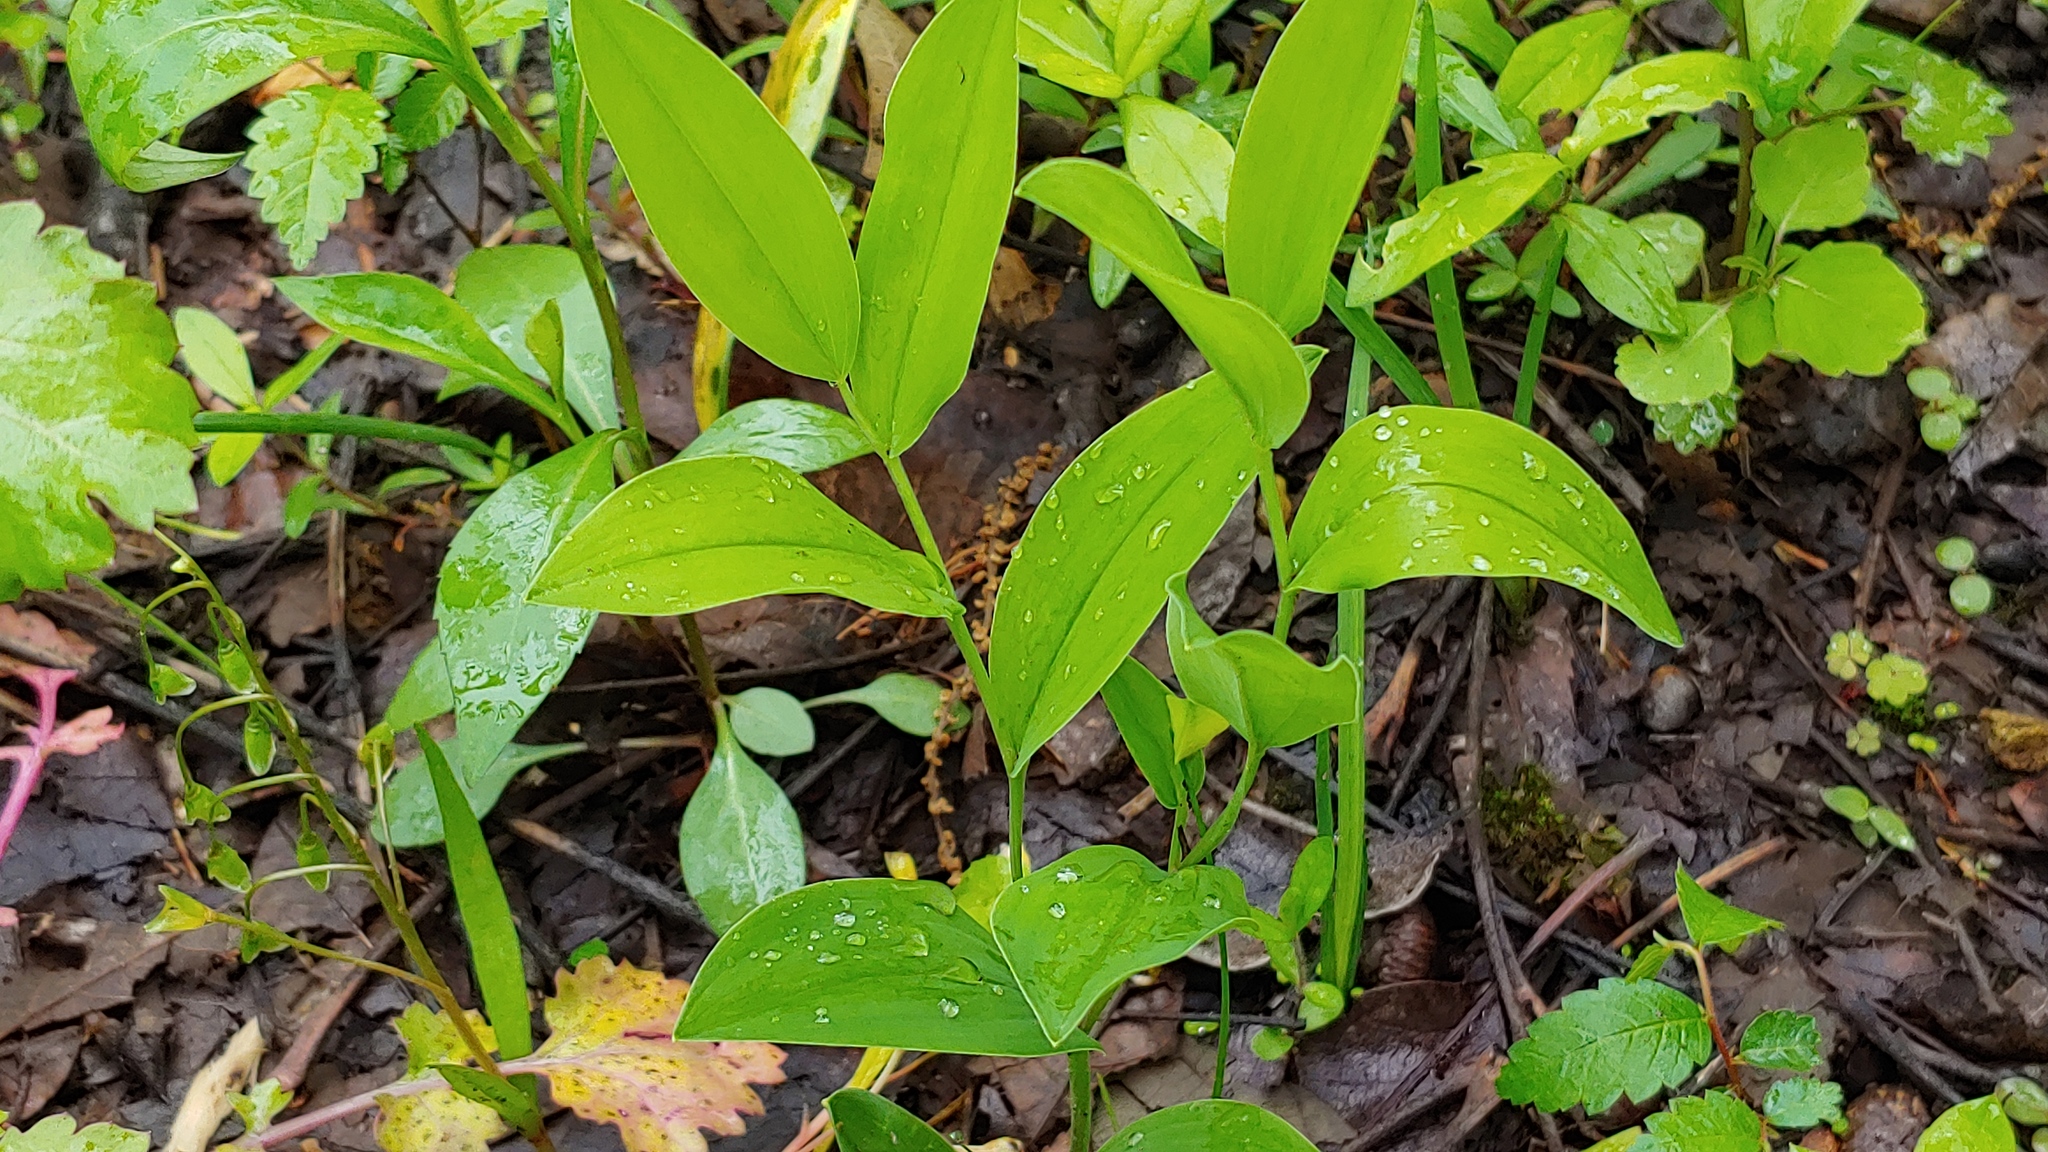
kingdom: Plantae
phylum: Tracheophyta
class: Liliopsida
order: Liliales
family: Colchicaceae
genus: Uvularia
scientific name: Uvularia floridana
